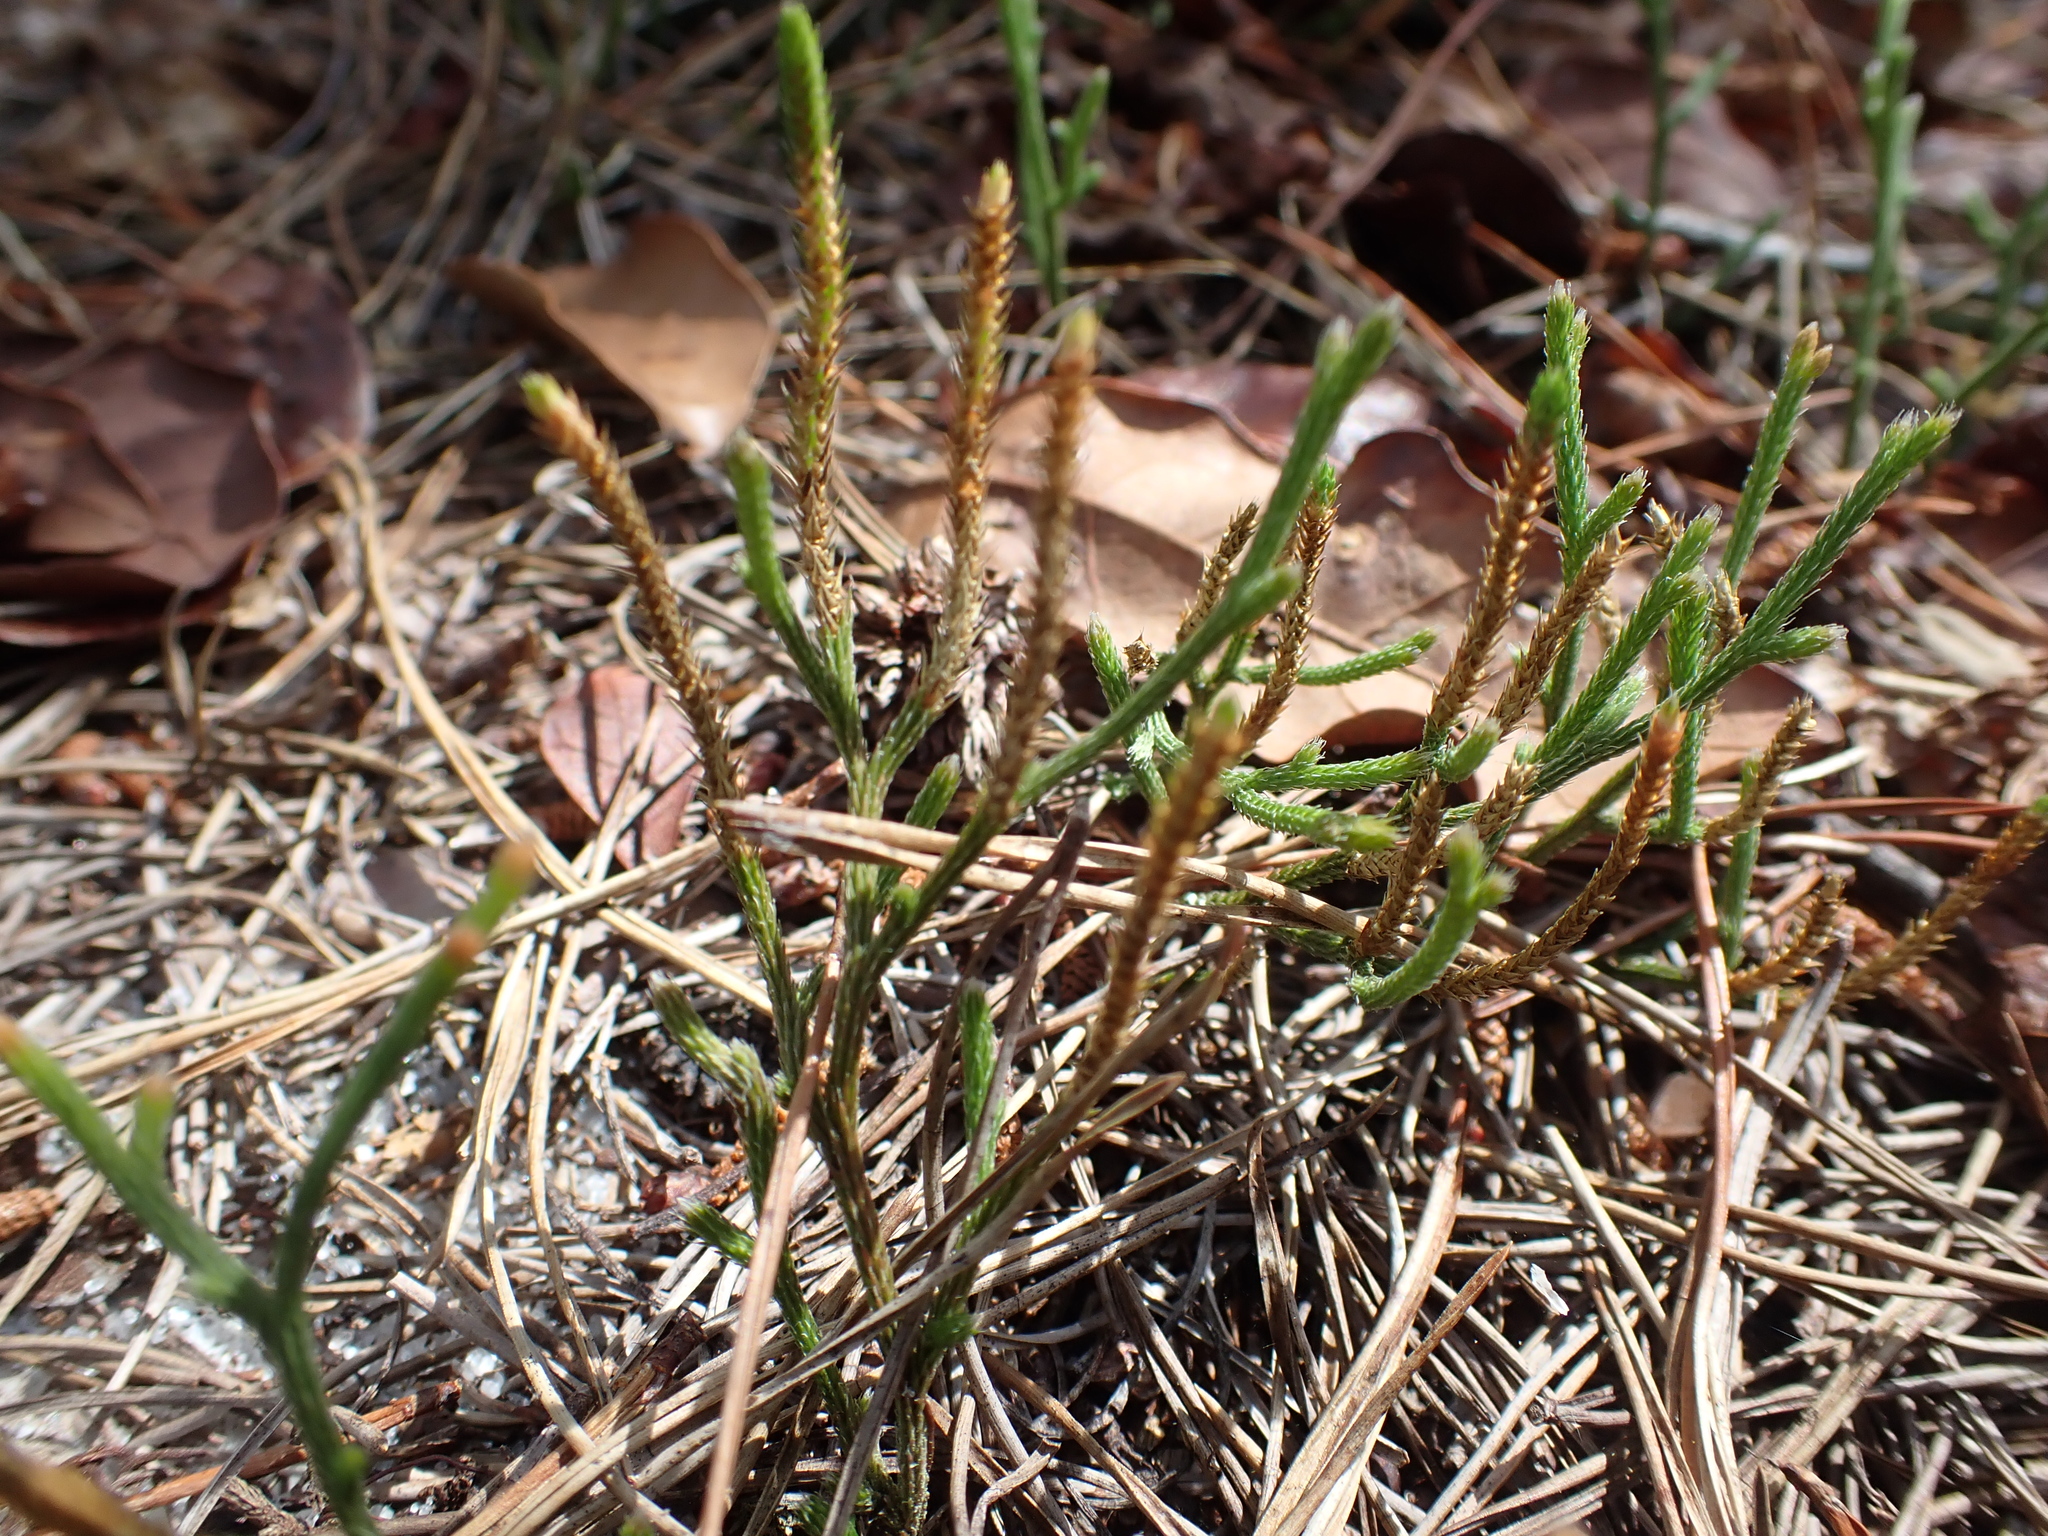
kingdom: Plantae
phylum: Tracheophyta
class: Lycopodiopsida
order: Selaginellales
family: Selaginellaceae
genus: Selaginella
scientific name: Selaginella arenicola
